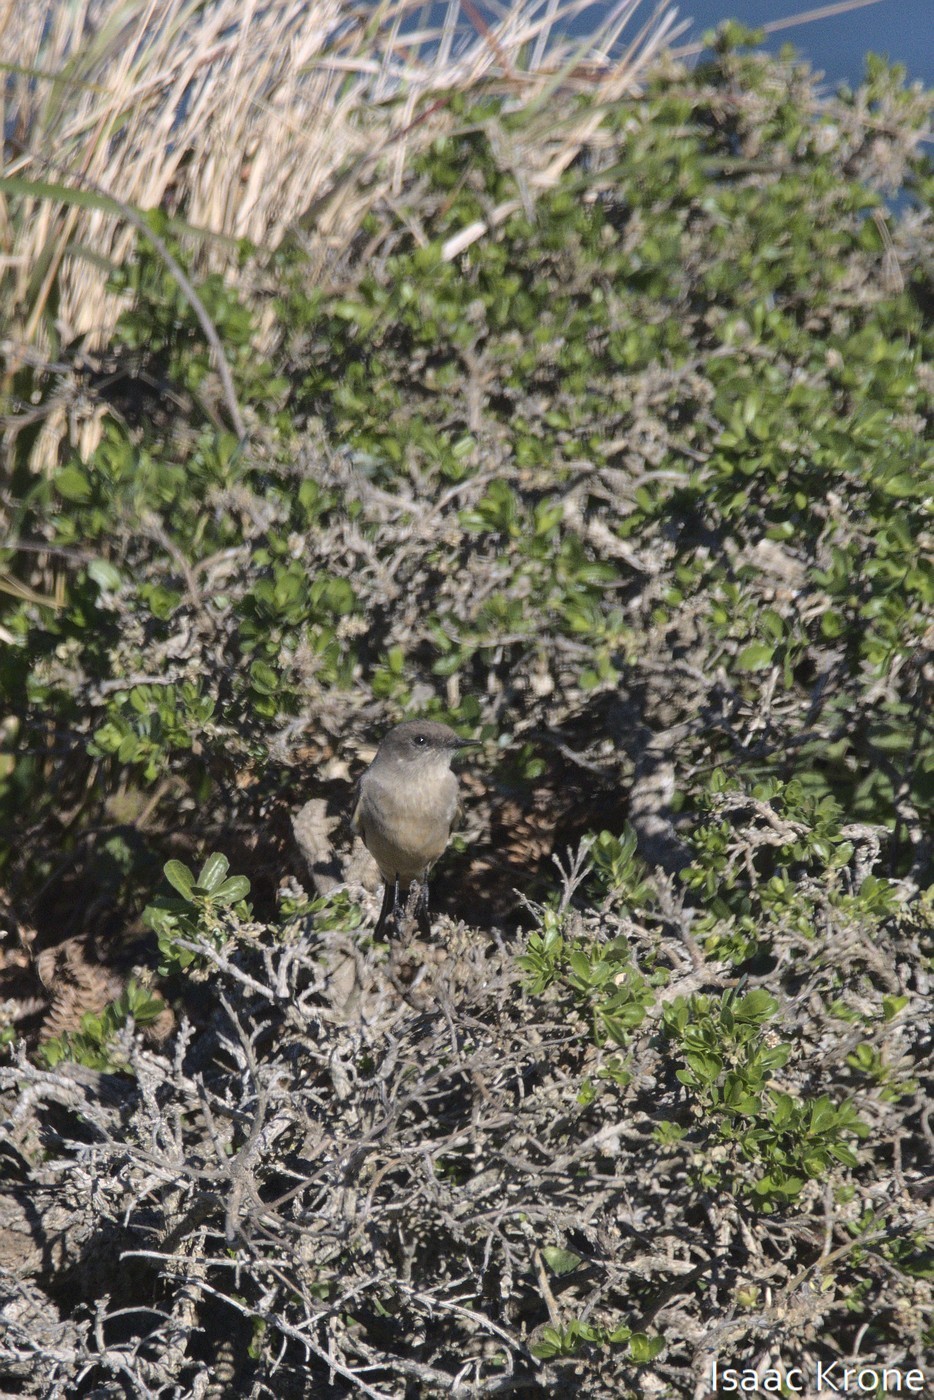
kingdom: Animalia
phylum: Chordata
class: Aves
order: Passeriformes
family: Tyrannidae
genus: Sayornis
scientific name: Sayornis saya
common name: Say's phoebe
